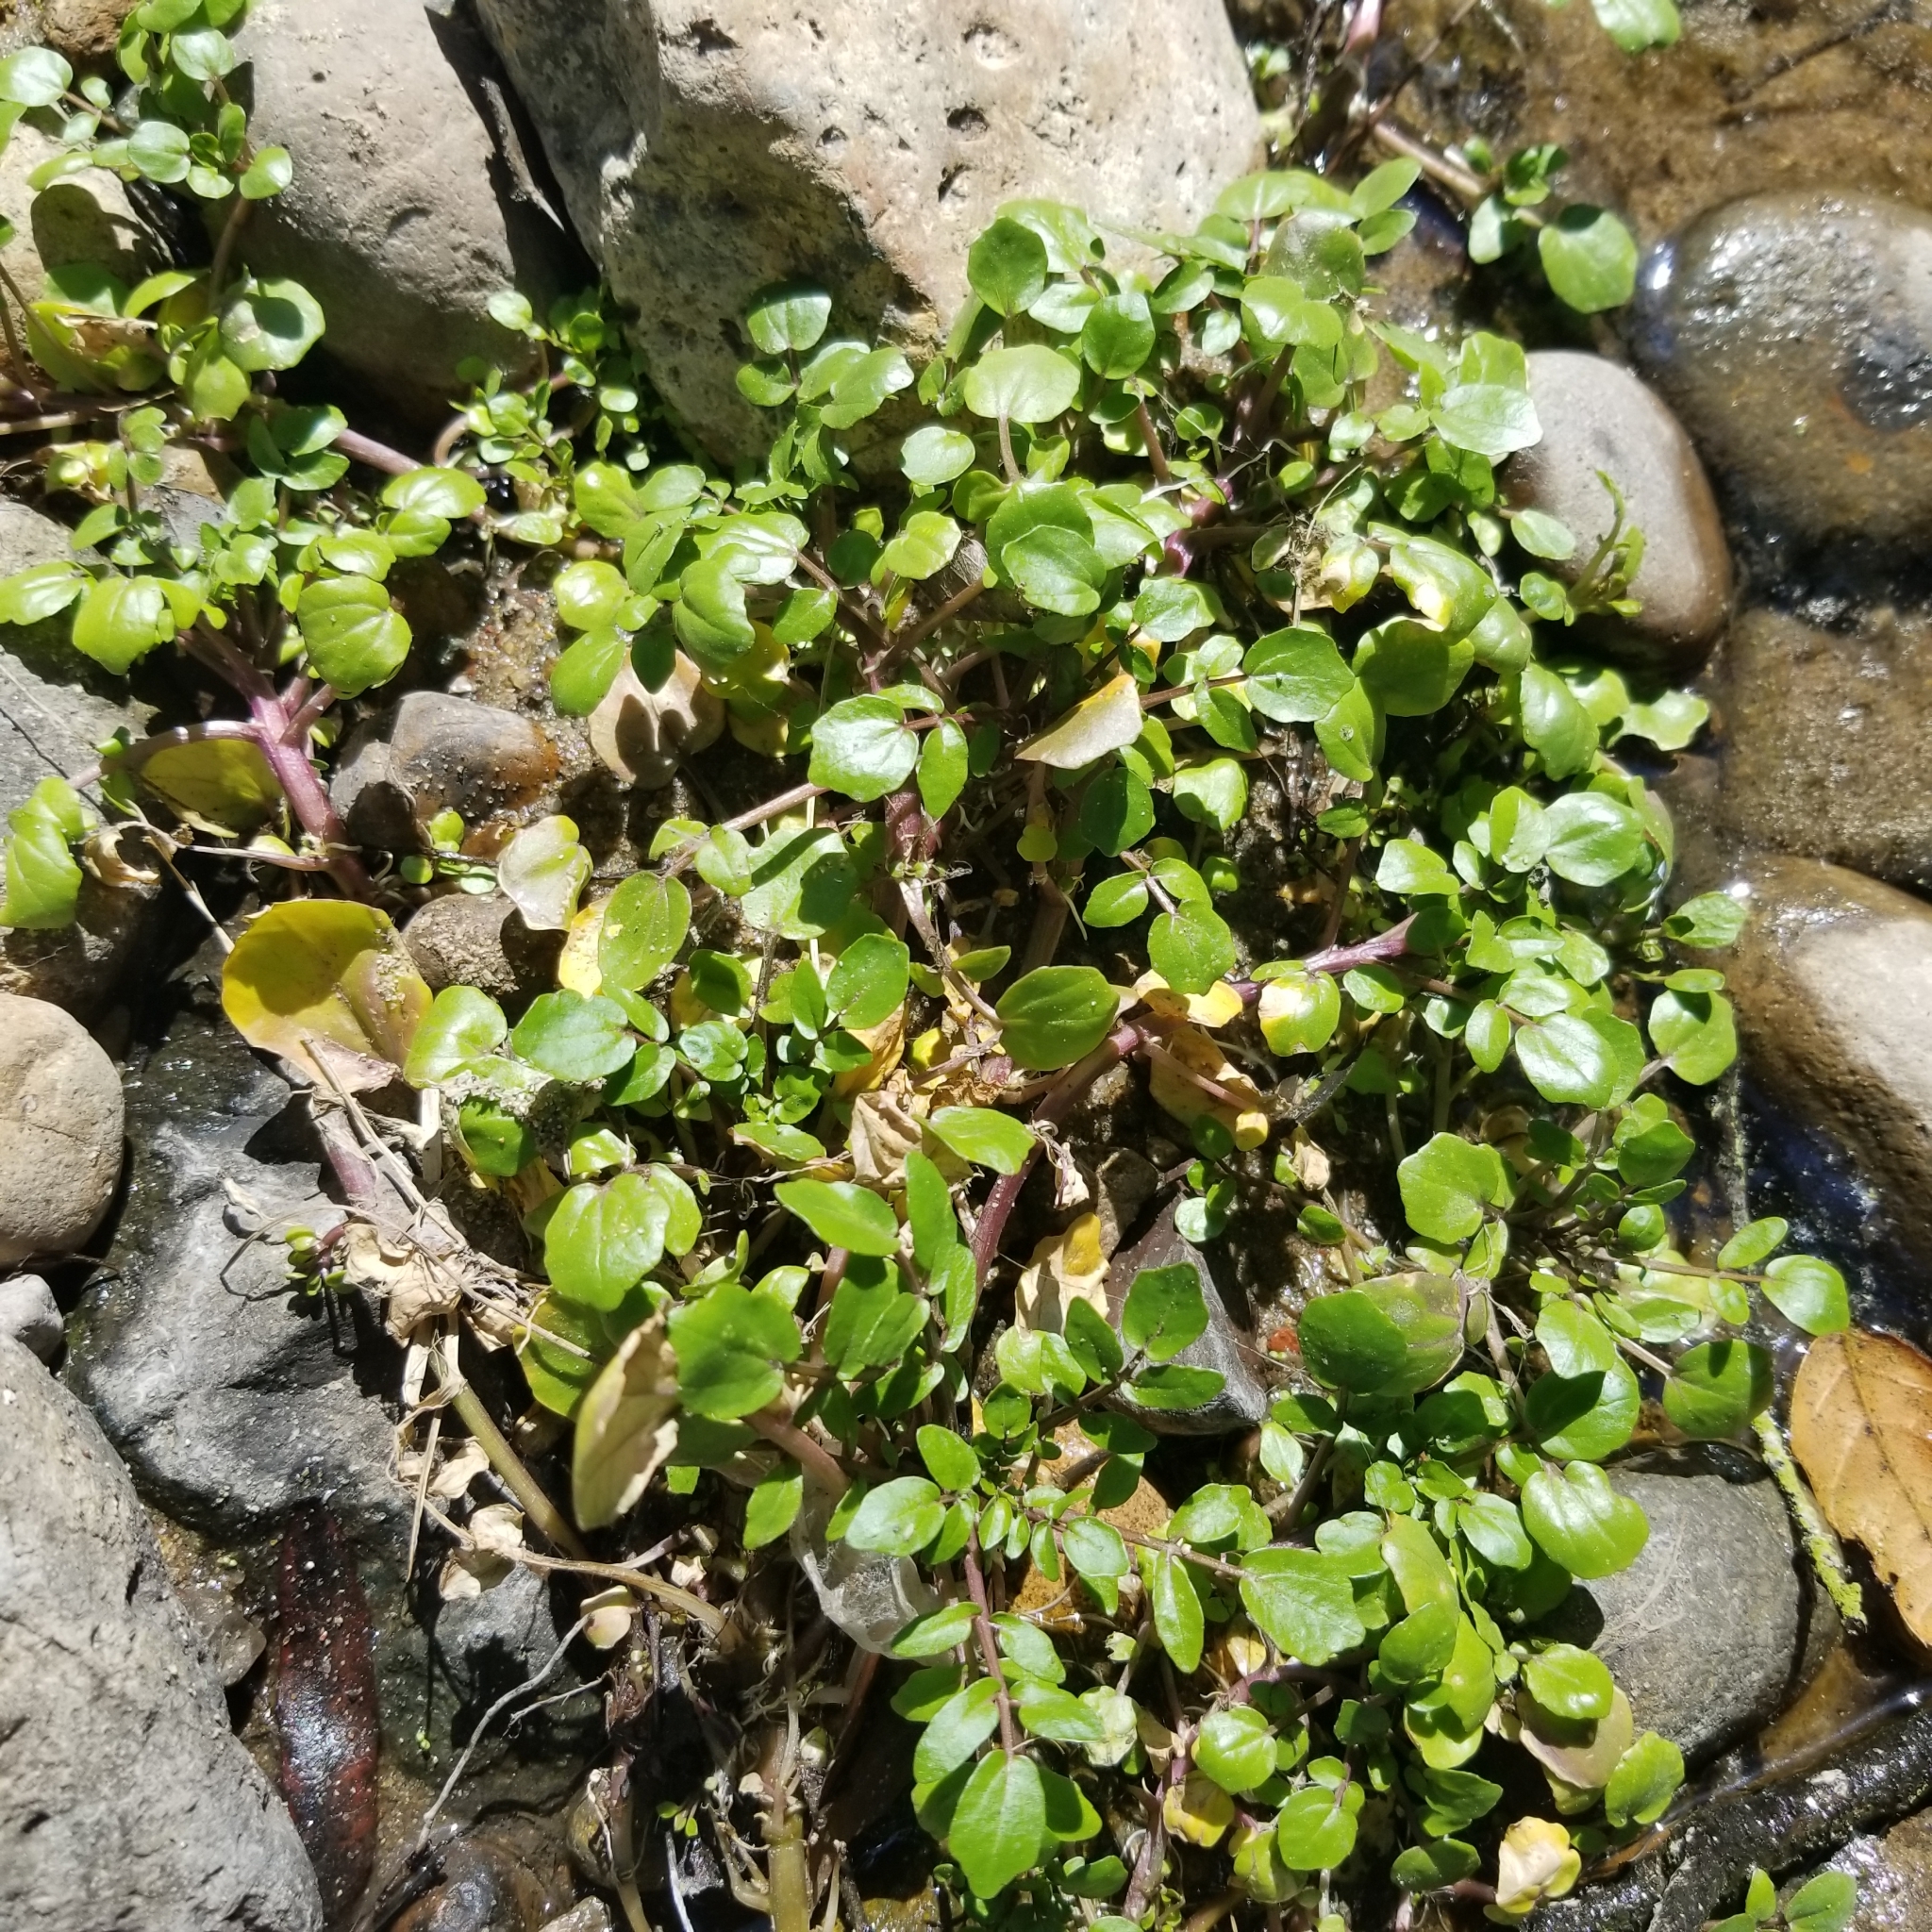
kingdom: Plantae
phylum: Tracheophyta
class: Magnoliopsida
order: Brassicales
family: Brassicaceae
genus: Nasturtium
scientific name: Nasturtium officinale
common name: Watercress
